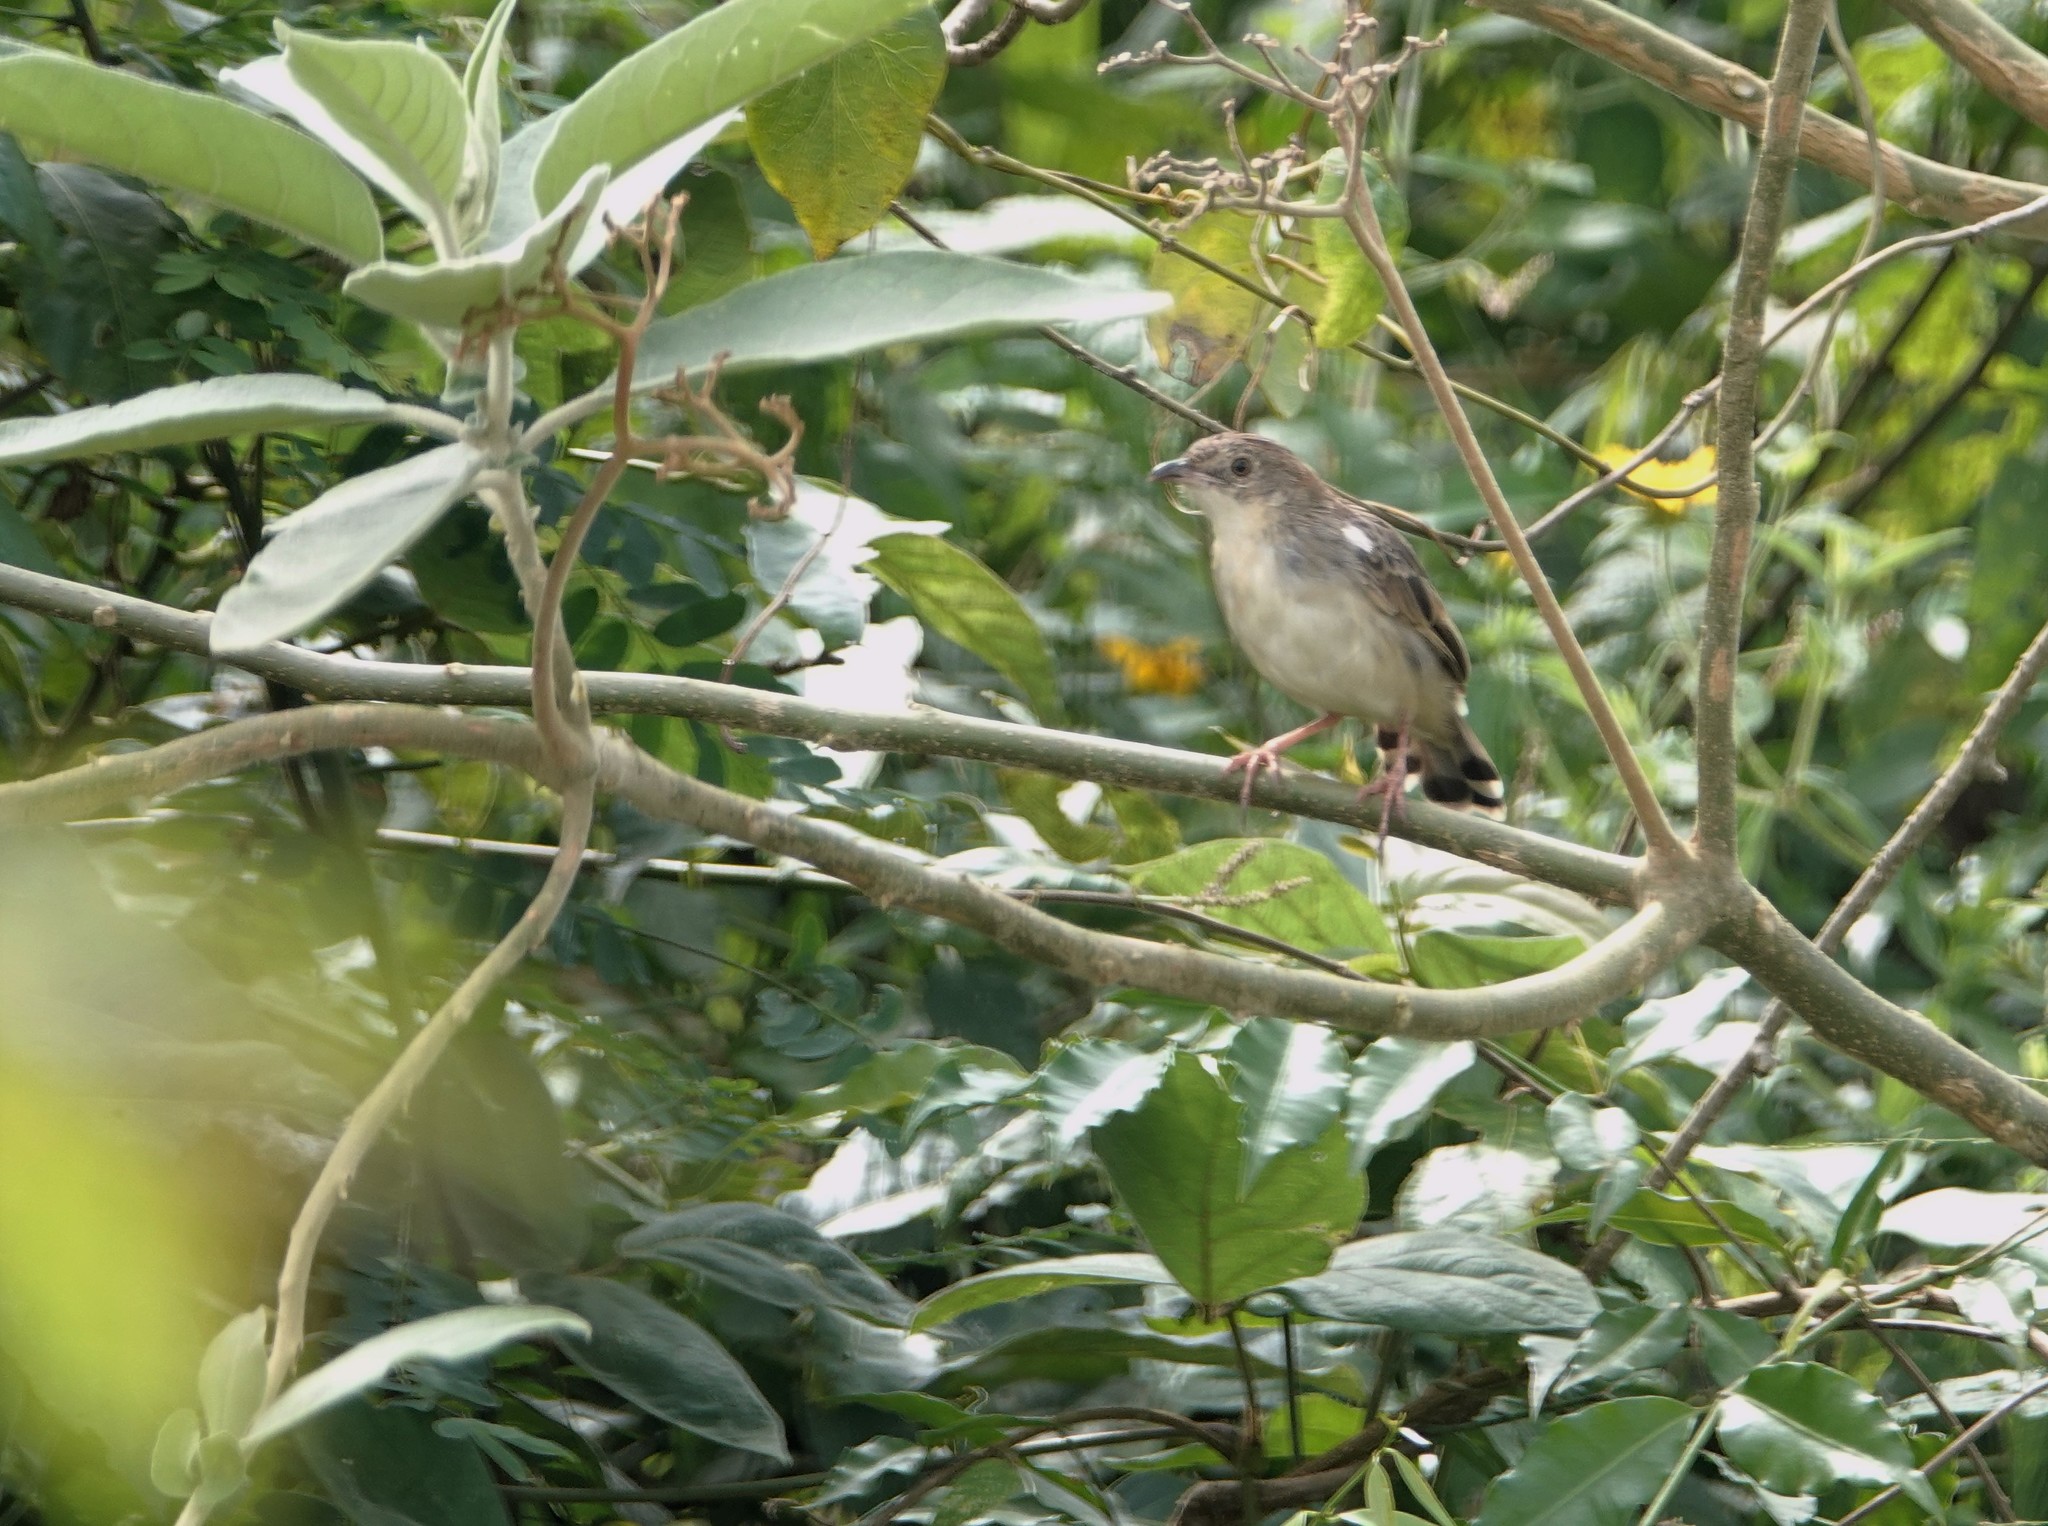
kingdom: Animalia
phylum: Chordata
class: Aves
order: Passeriformes
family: Cisticolidae
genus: Cisticola
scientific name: Cisticola natalensis
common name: Croaking cisticola
